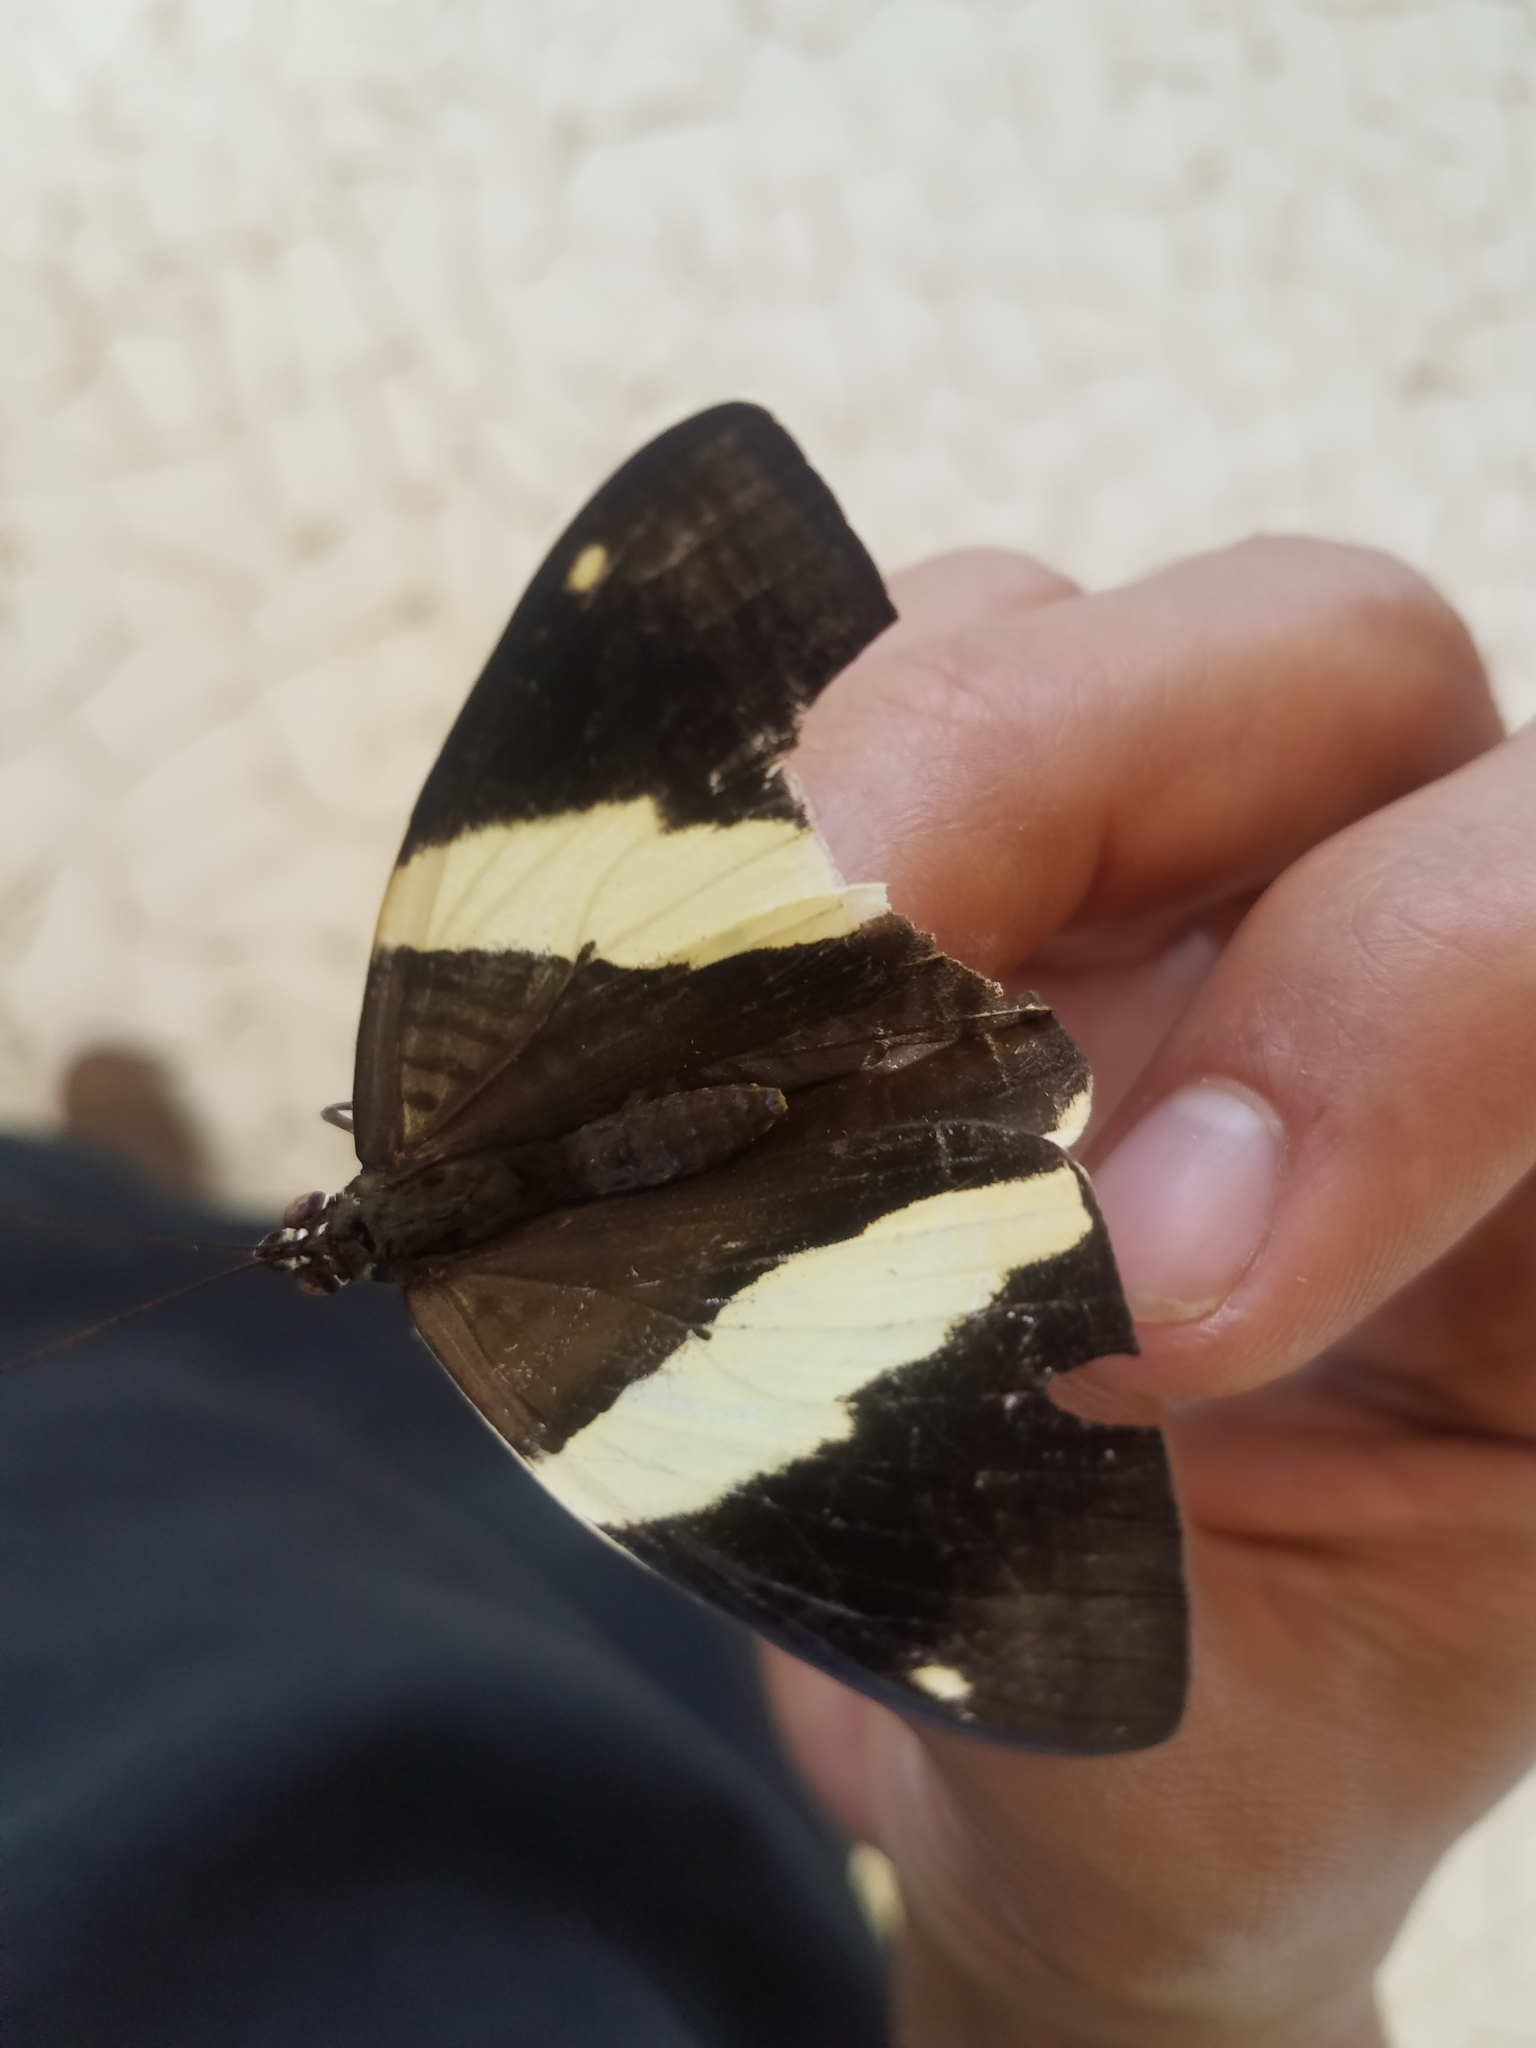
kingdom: Animalia
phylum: Arthropoda
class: Insecta
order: Lepidoptera
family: Nymphalidae
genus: Colobura
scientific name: Colobura dirce
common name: Dirce beauty
